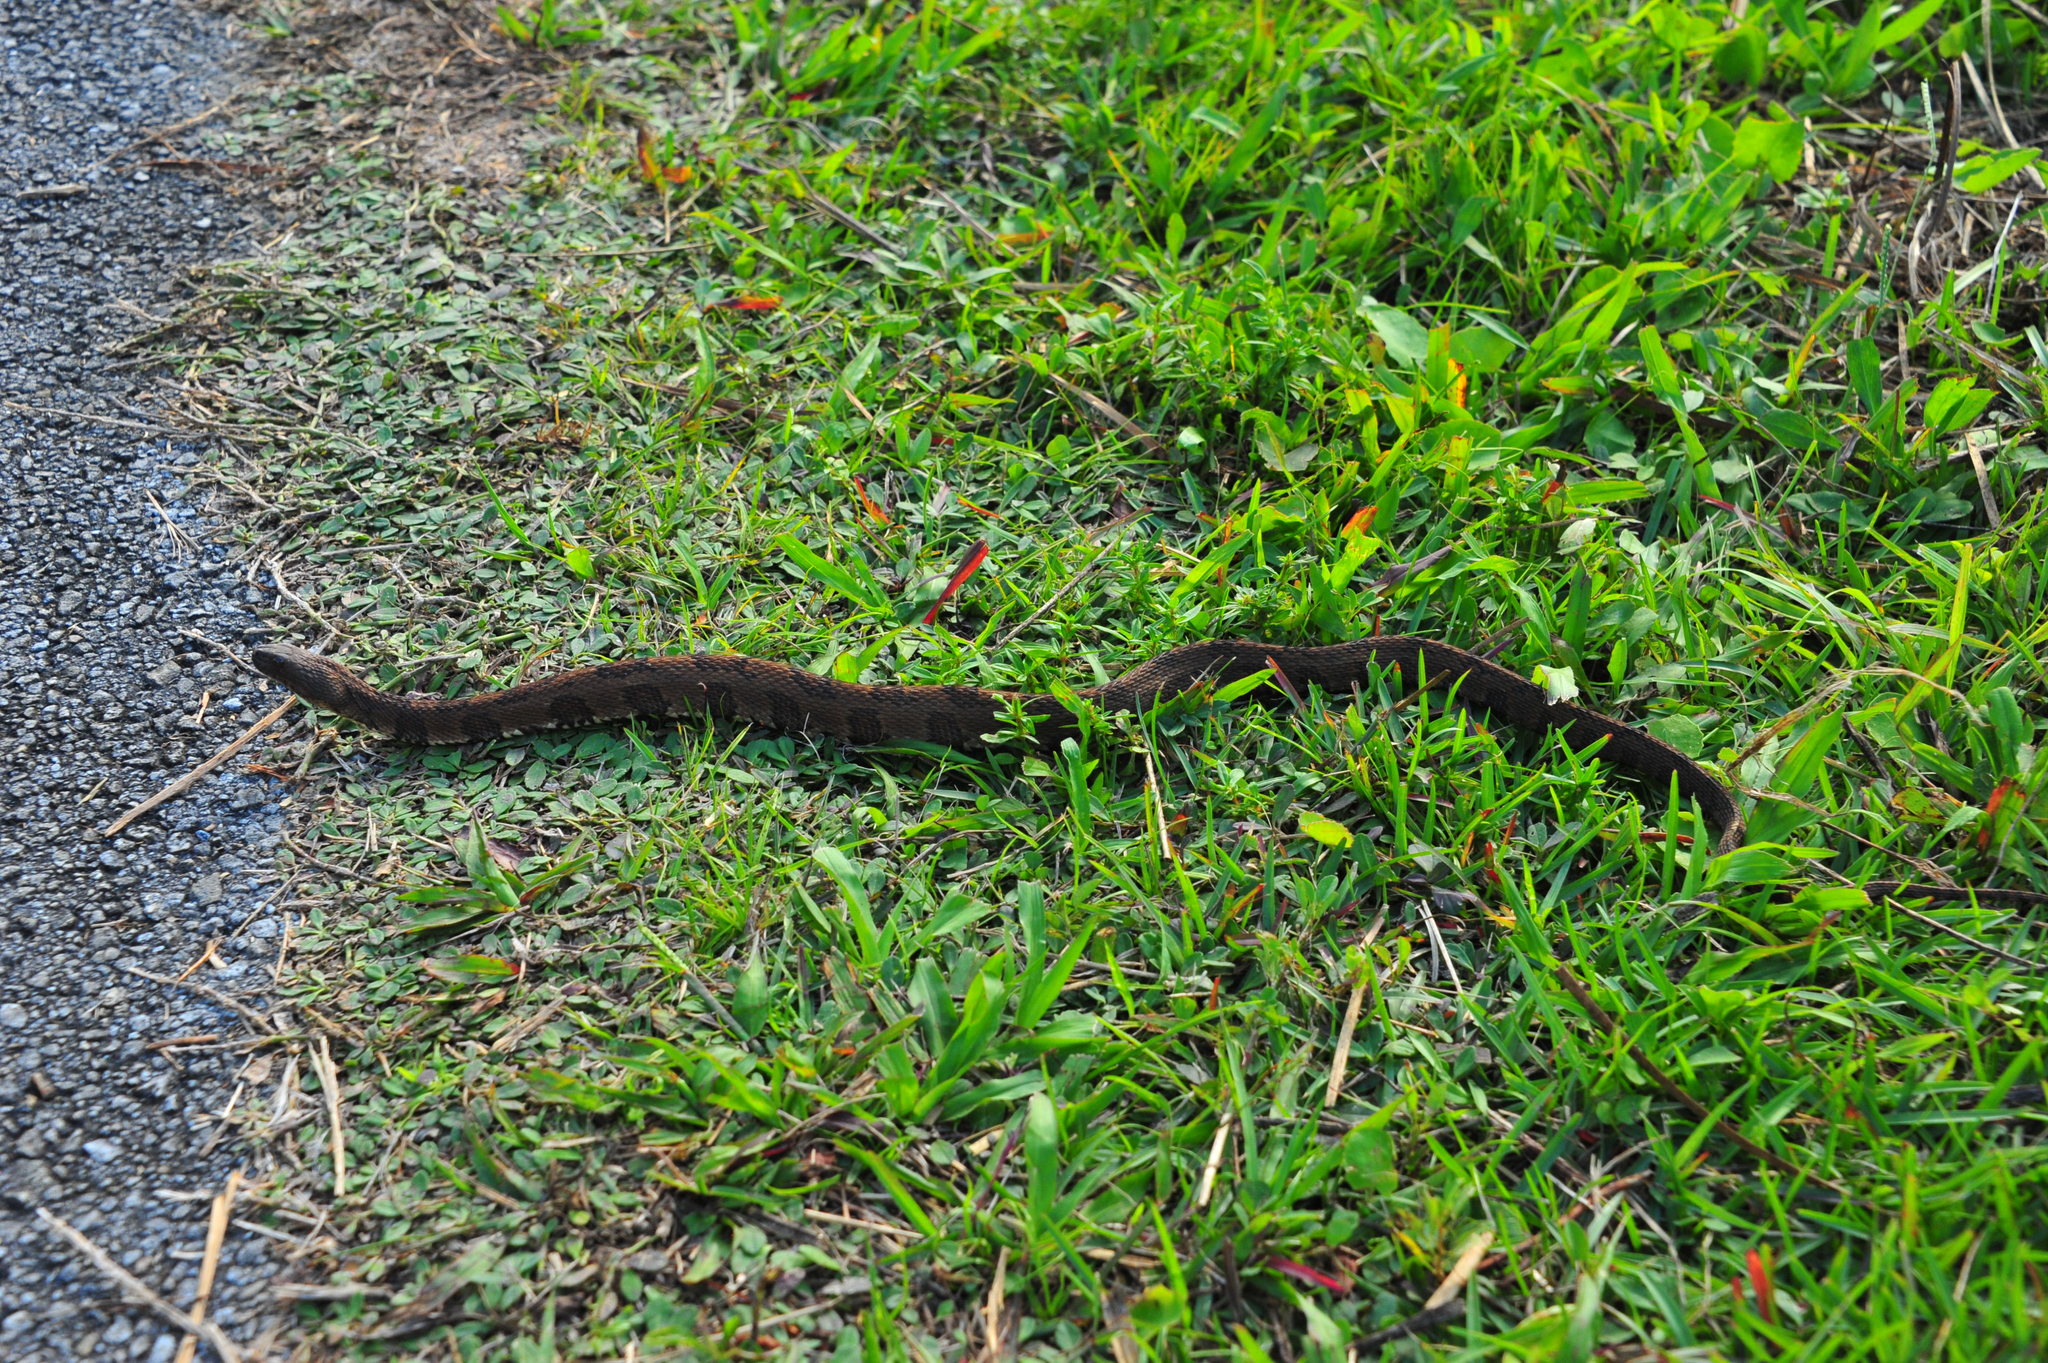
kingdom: Animalia
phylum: Chordata
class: Squamata
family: Colubridae
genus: Nerodia
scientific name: Nerodia taxispilota
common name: Brown water snake
